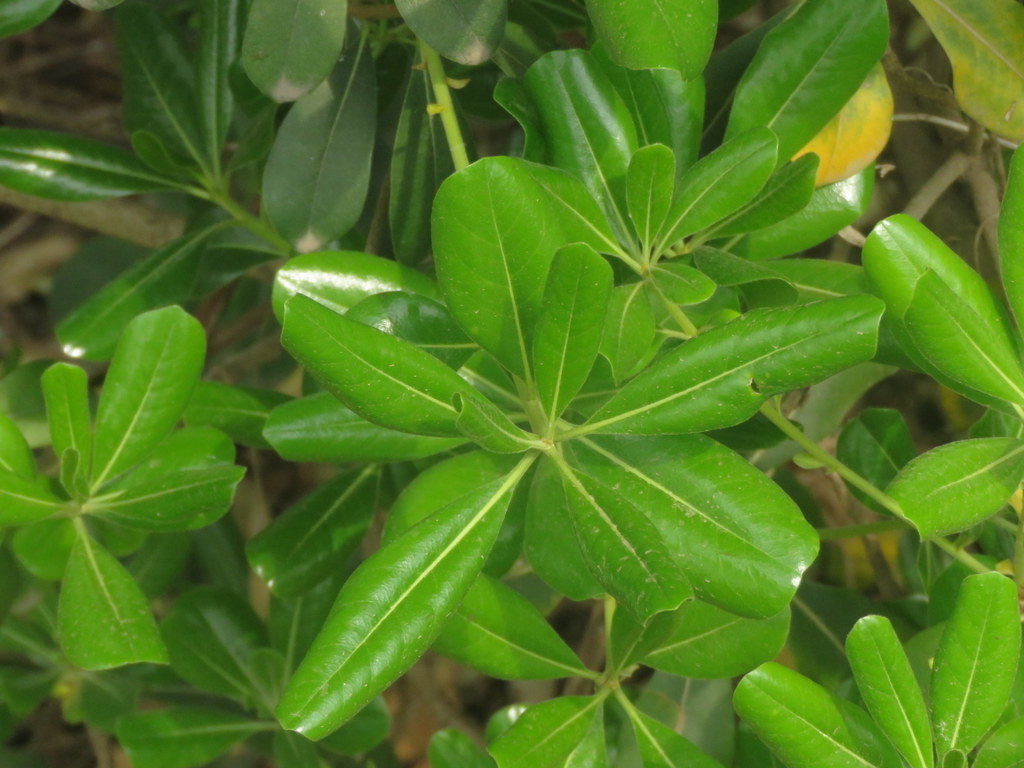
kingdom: Plantae
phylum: Tracheophyta
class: Magnoliopsida
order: Apiales
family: Pittosporaceae
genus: Pittosporum
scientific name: Pittosporum tobira
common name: Japanese cheesewood
